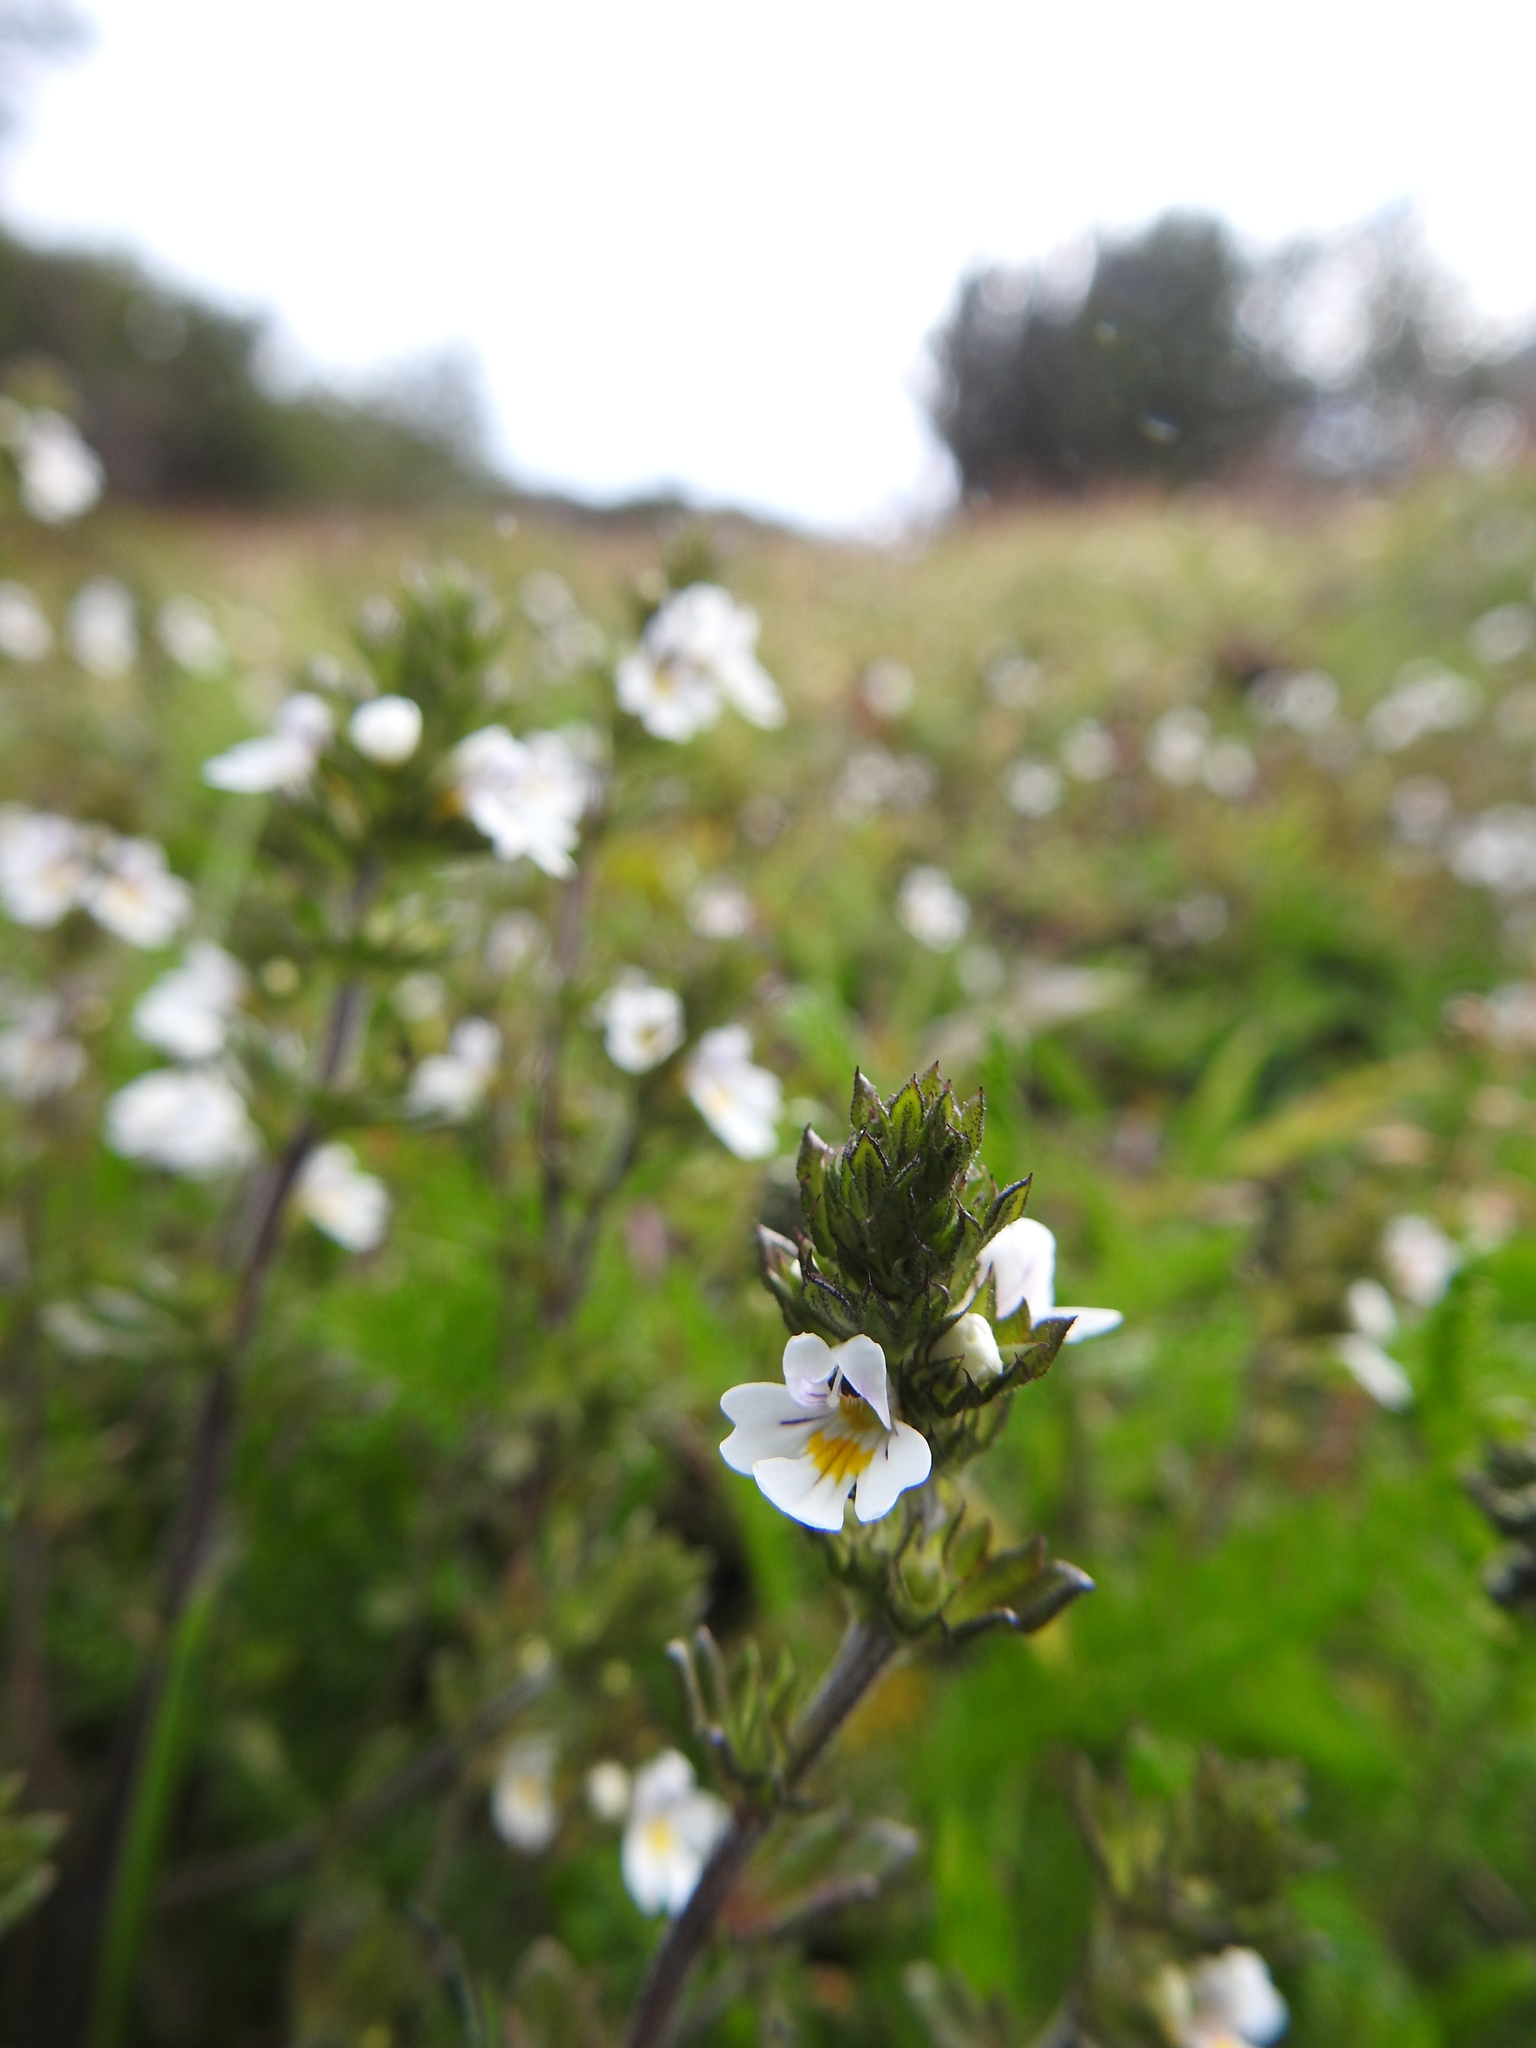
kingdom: Plantae
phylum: Tracheophyta
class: Magnoliopsida
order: Lamiales
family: Orobanchaceae
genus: Euphrasia
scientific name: Euphrasia officinalis
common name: Eyebright
